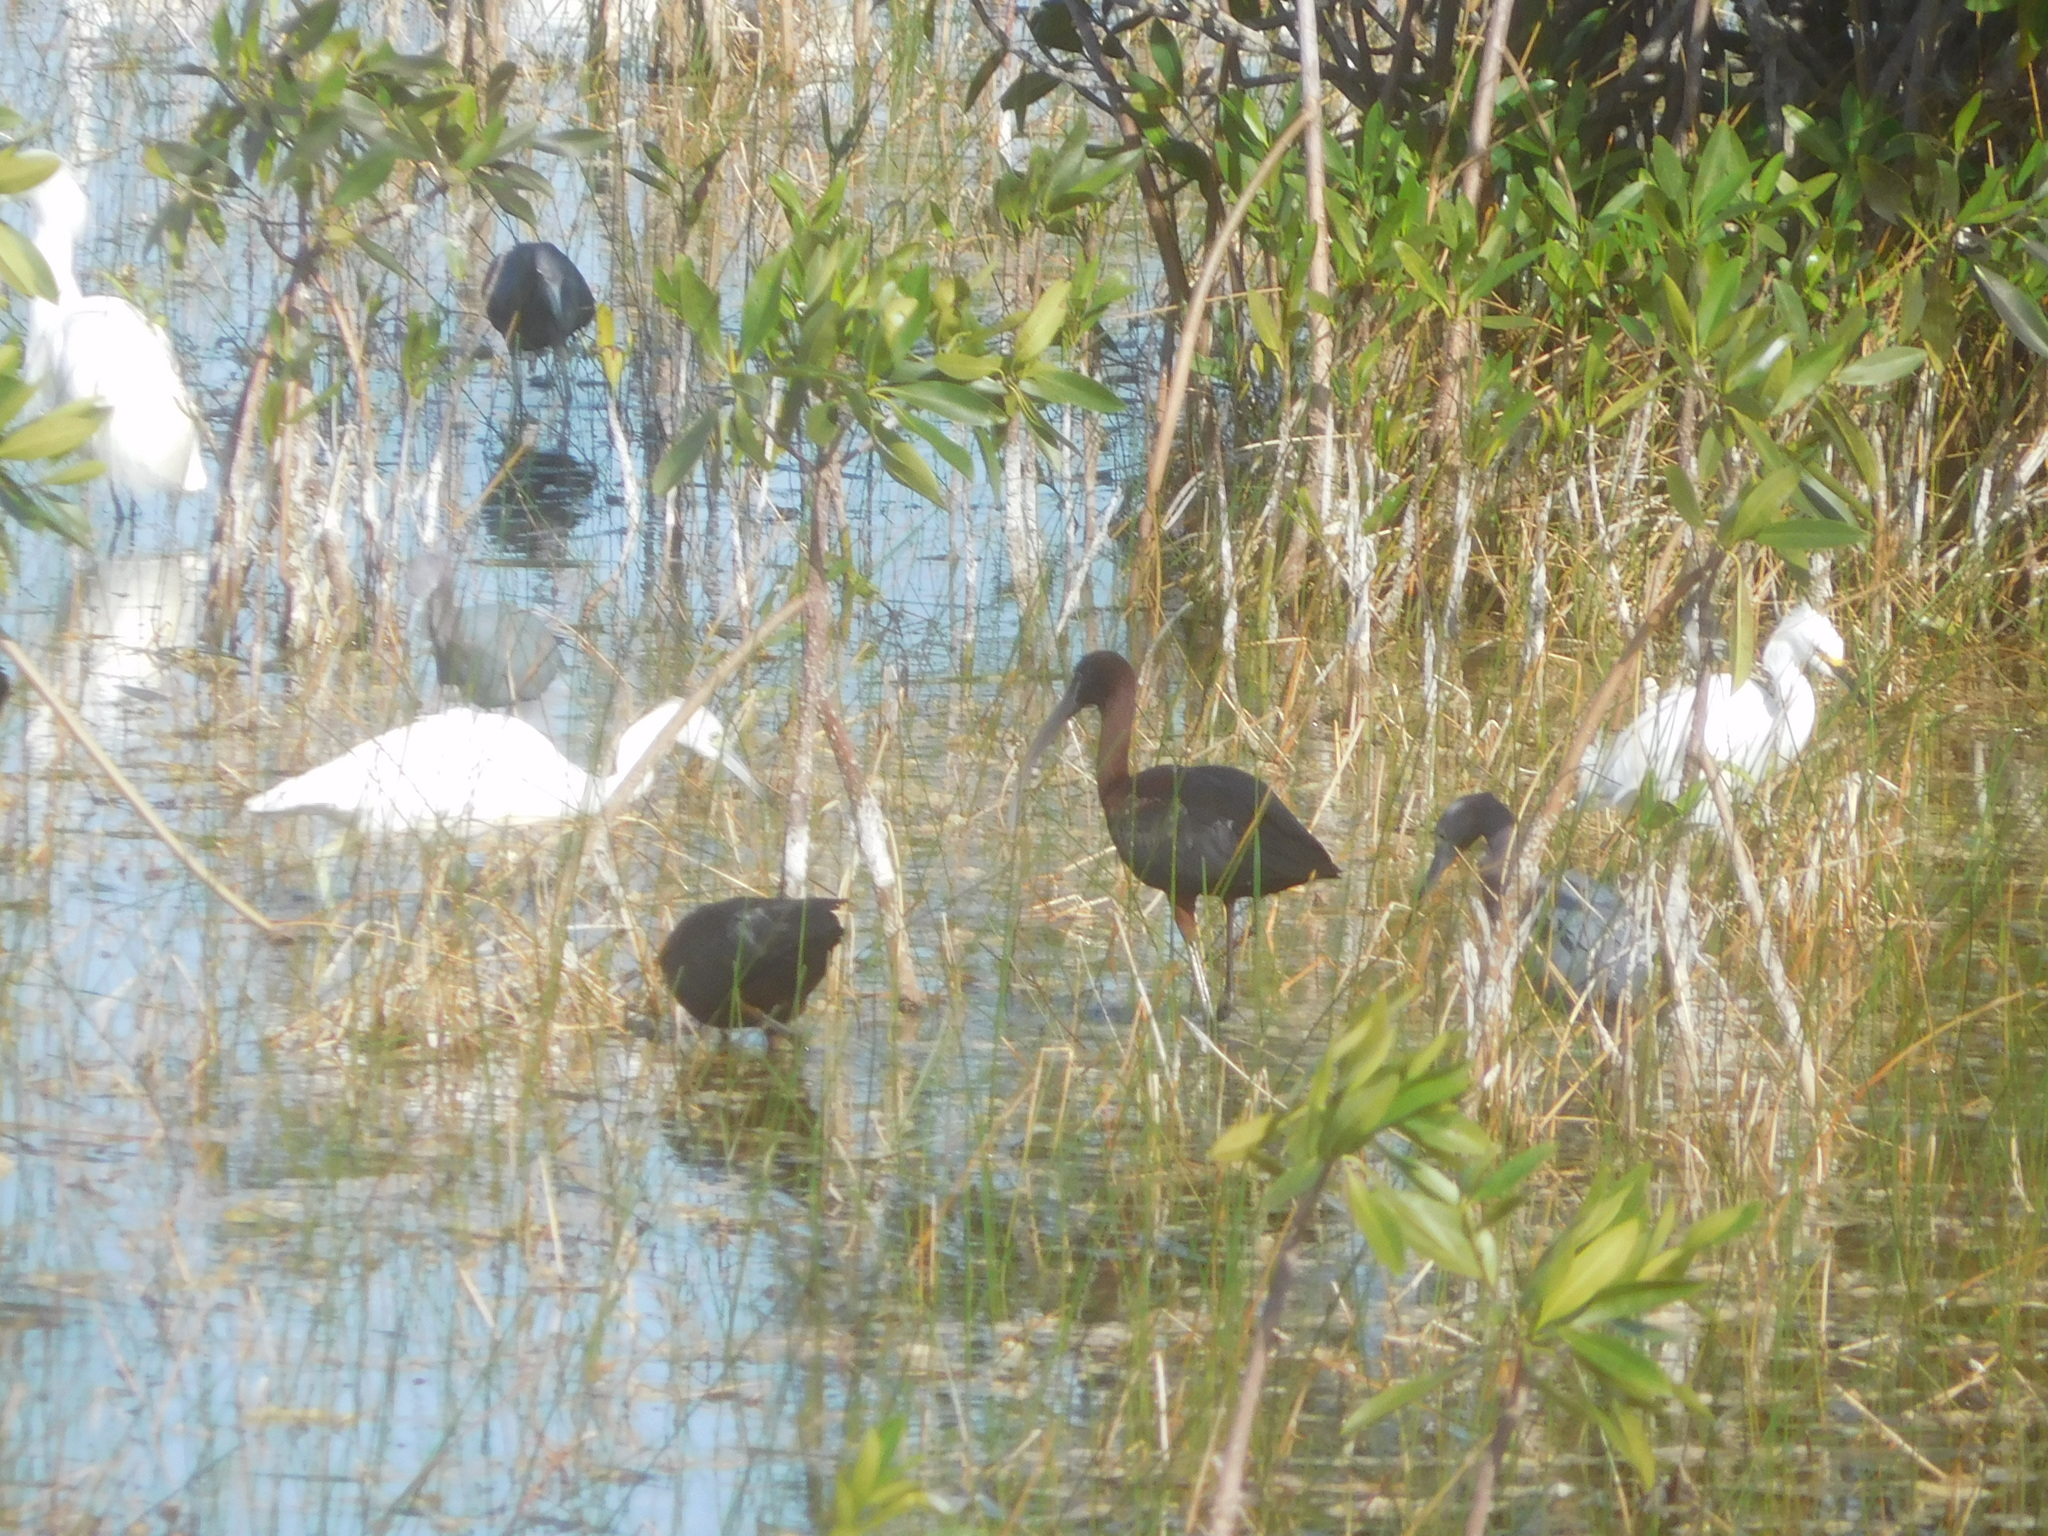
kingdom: Animalia
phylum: Chordata
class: Aves
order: Pelecaniformes
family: Threskiornithidae
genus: Plegadis
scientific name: Plegadis falcinellus
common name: Glossy ibis
